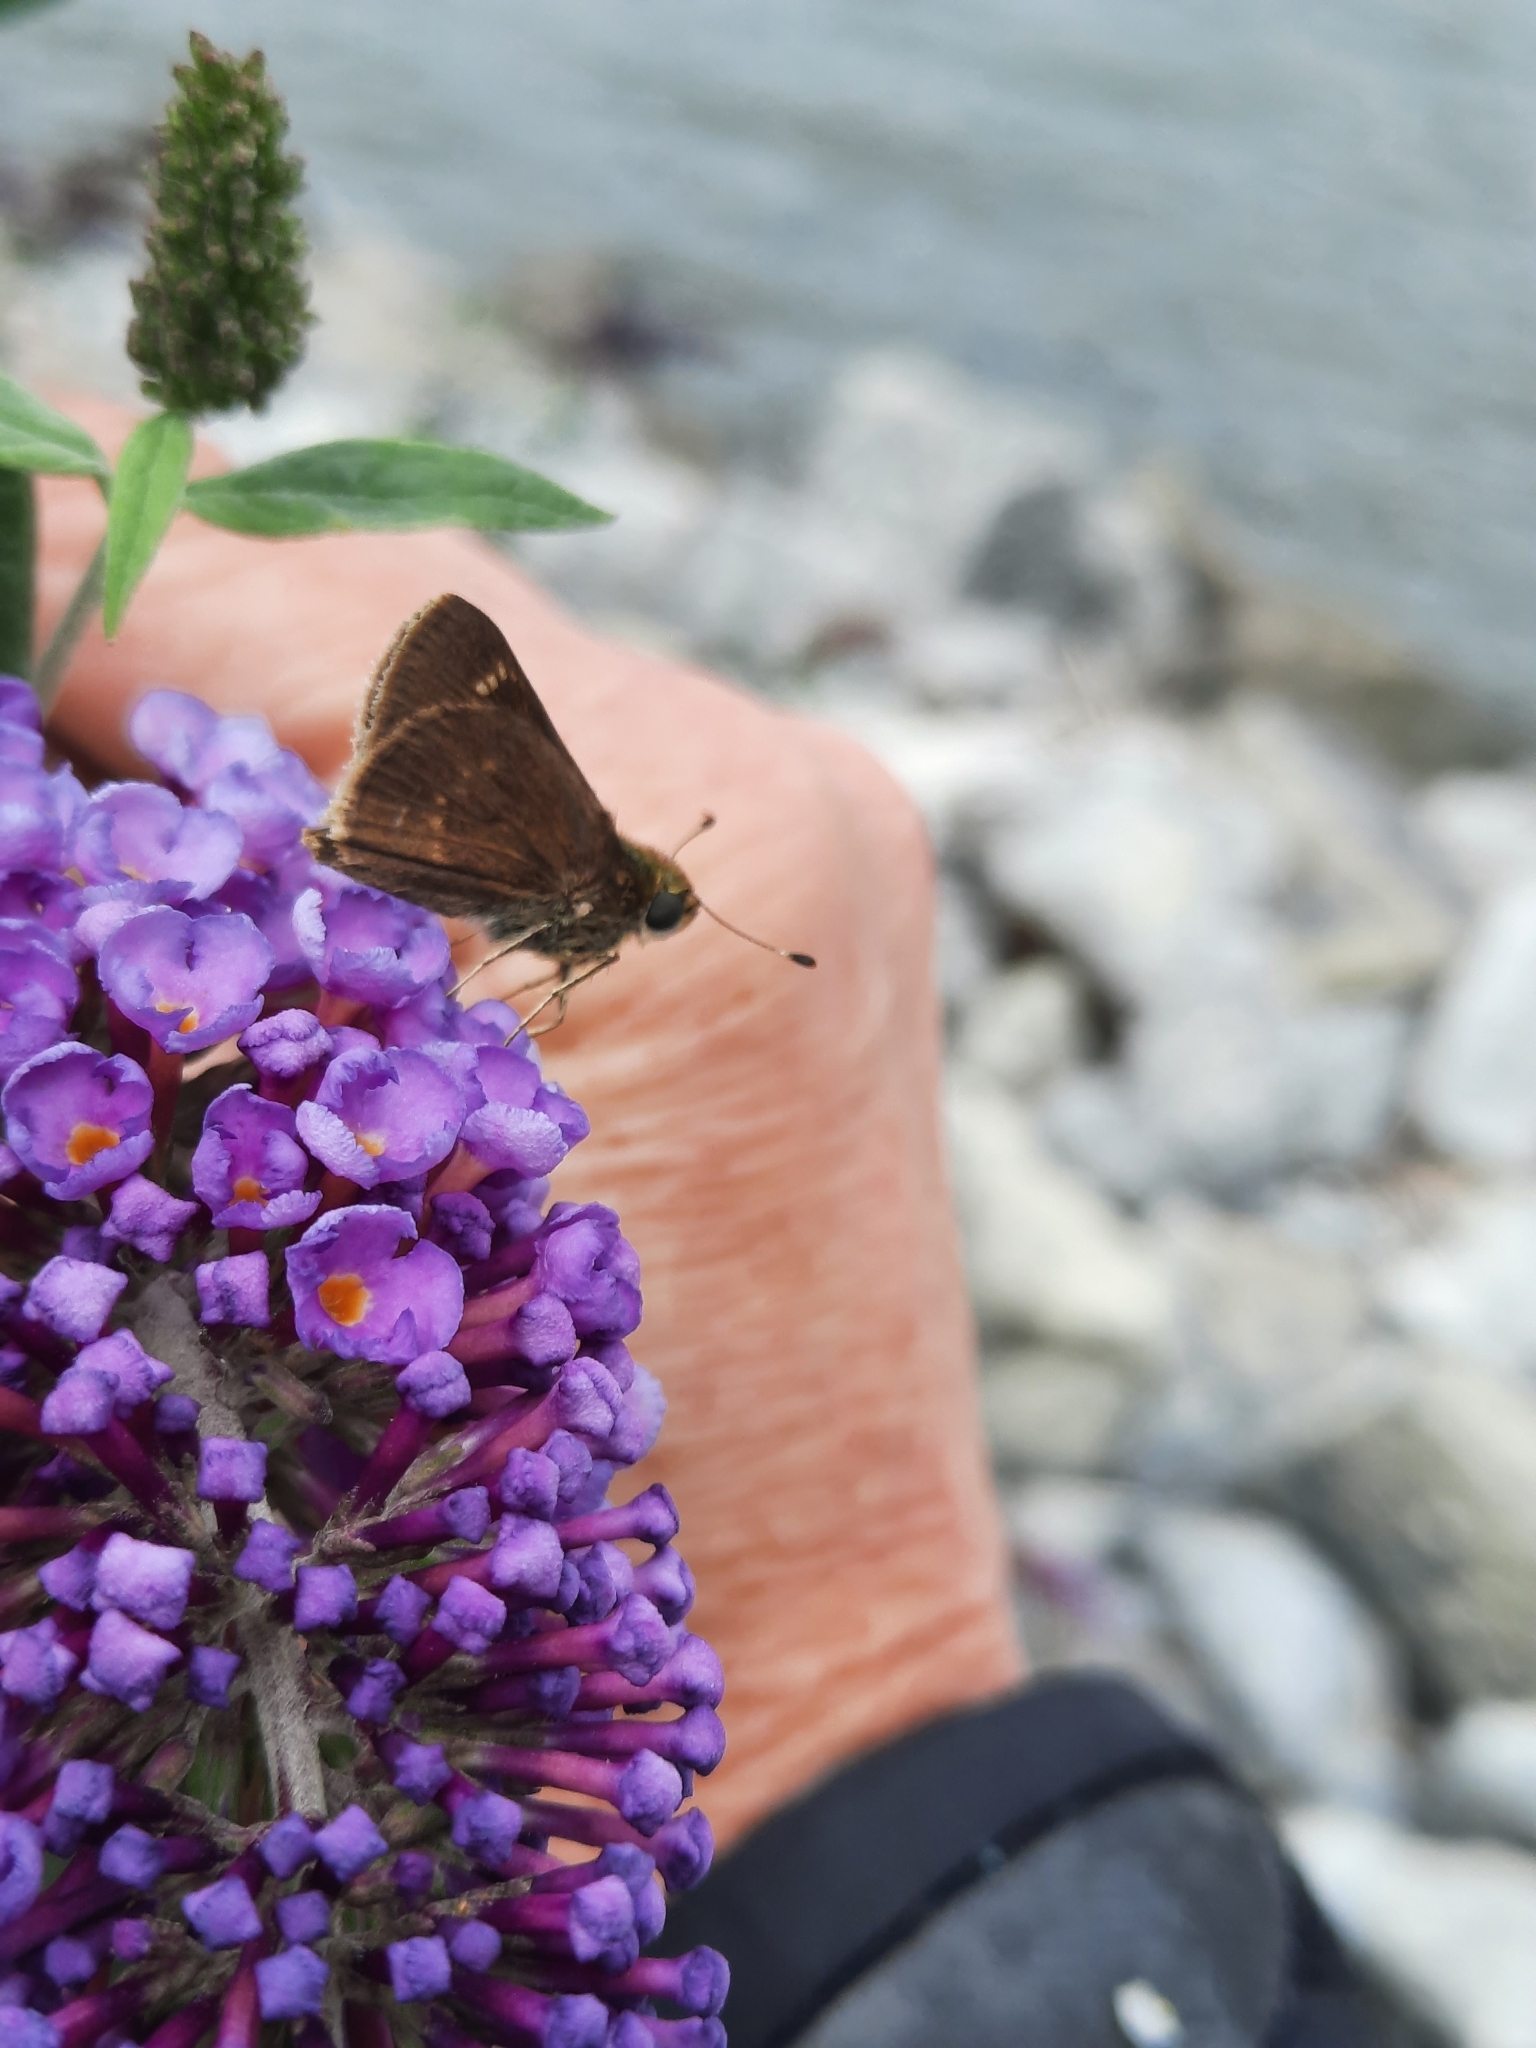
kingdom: Animalia
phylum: Arthropoda
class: Insecta
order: Lepidoptera
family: Hesperiidae
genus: Vernia
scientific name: Vernia verna
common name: Little glassywing
